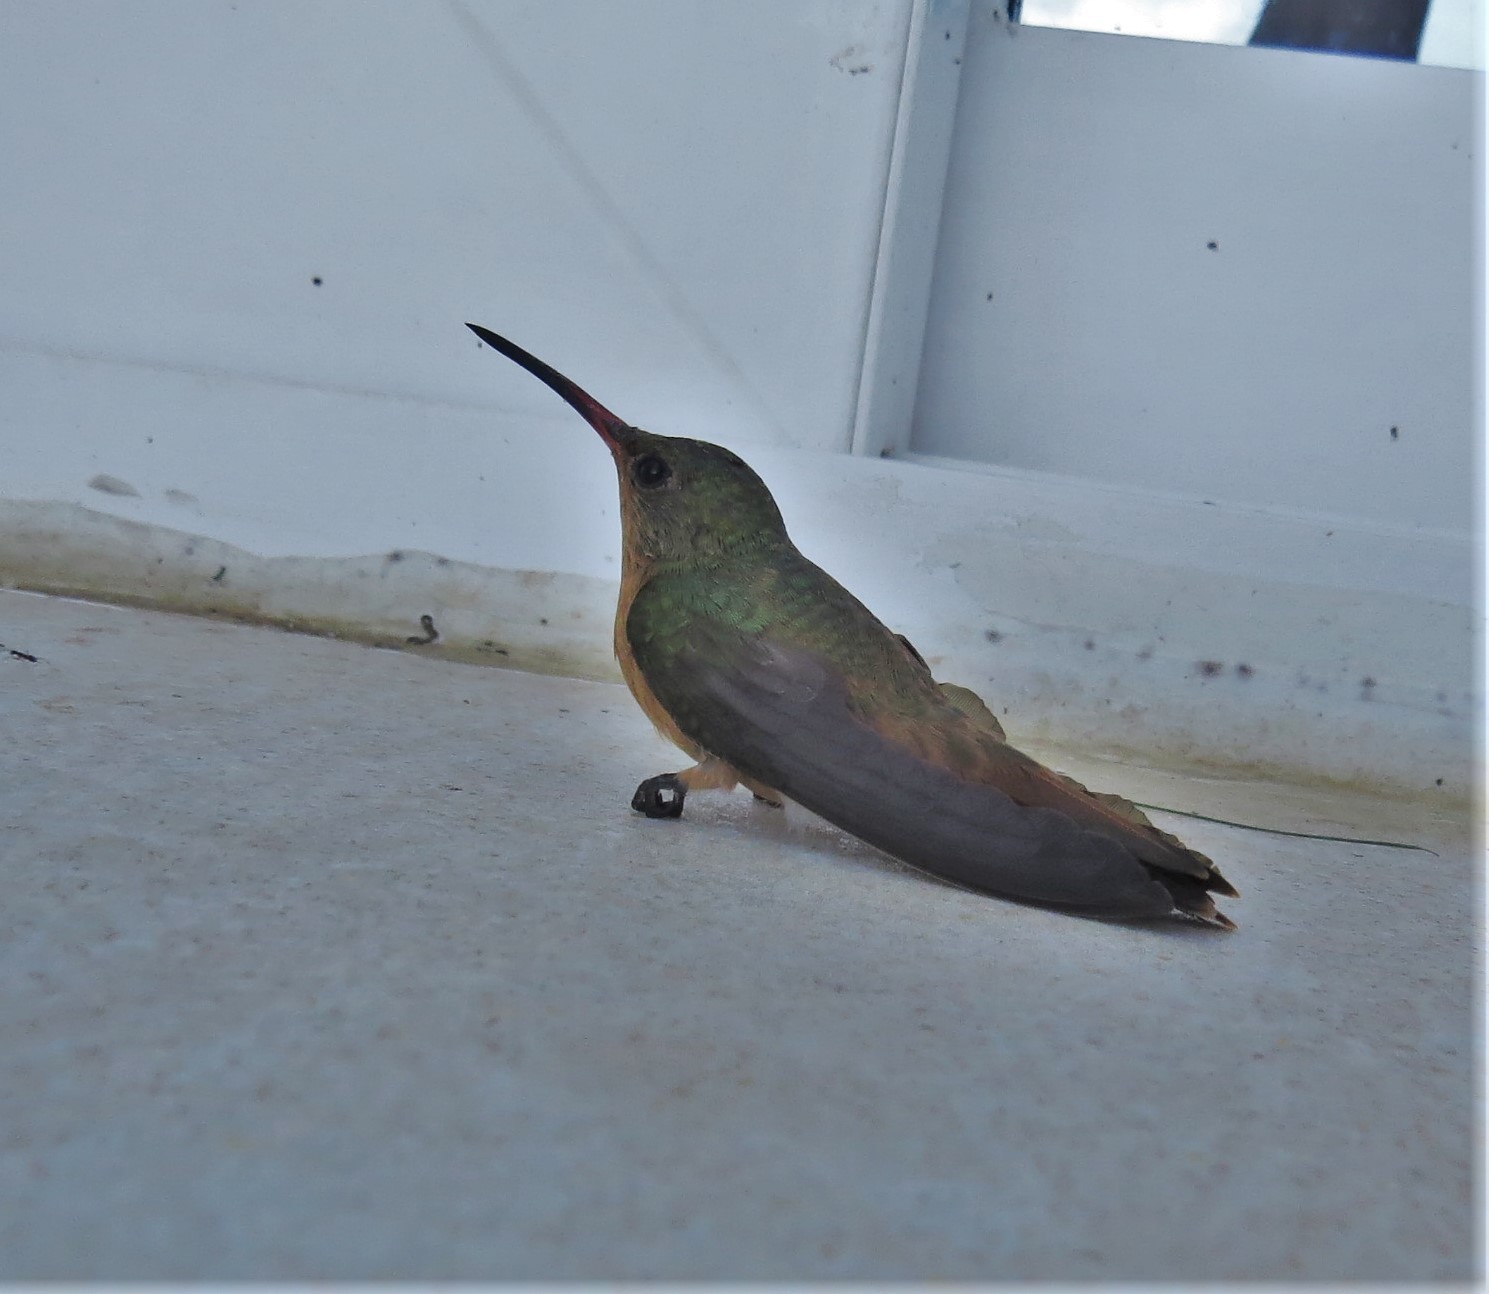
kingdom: Animalia
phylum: Chordata
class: Aves
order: Apodiformes
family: Trochilidae
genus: Amazilia
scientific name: Amazilia rutila
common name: Cinnamon hummingbird
